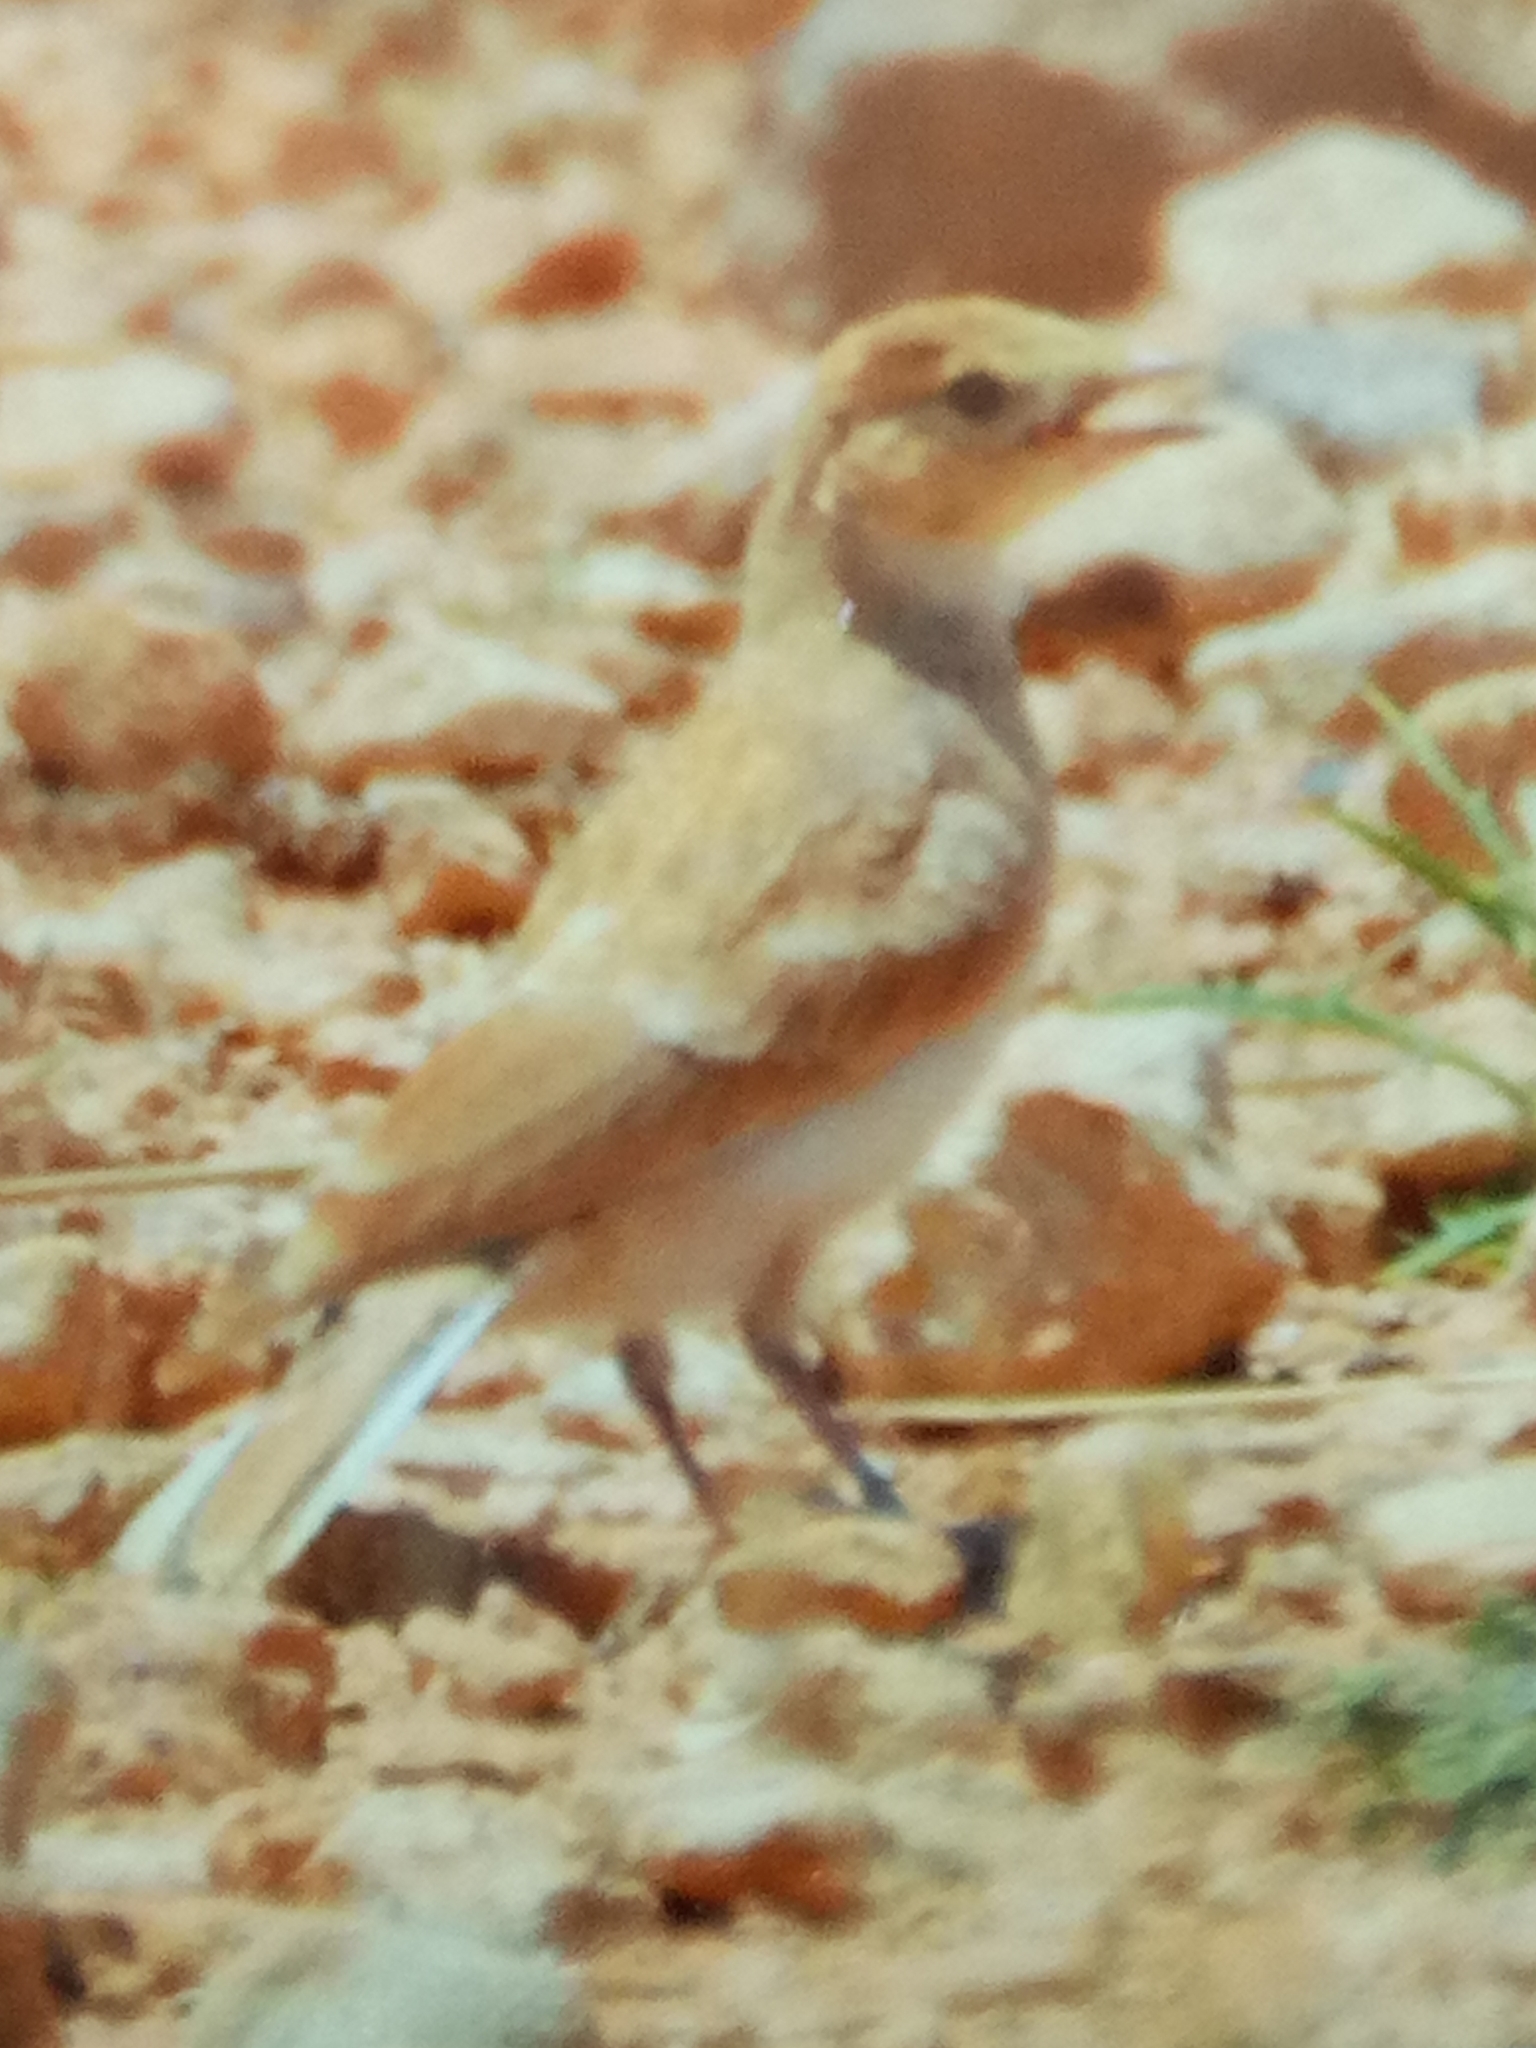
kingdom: Animalia
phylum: Chordata
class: Aves
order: Passeriformes
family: Alaudidae
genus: Ammomanes
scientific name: Ammomanes cinctura
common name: Bar-tailed lark
